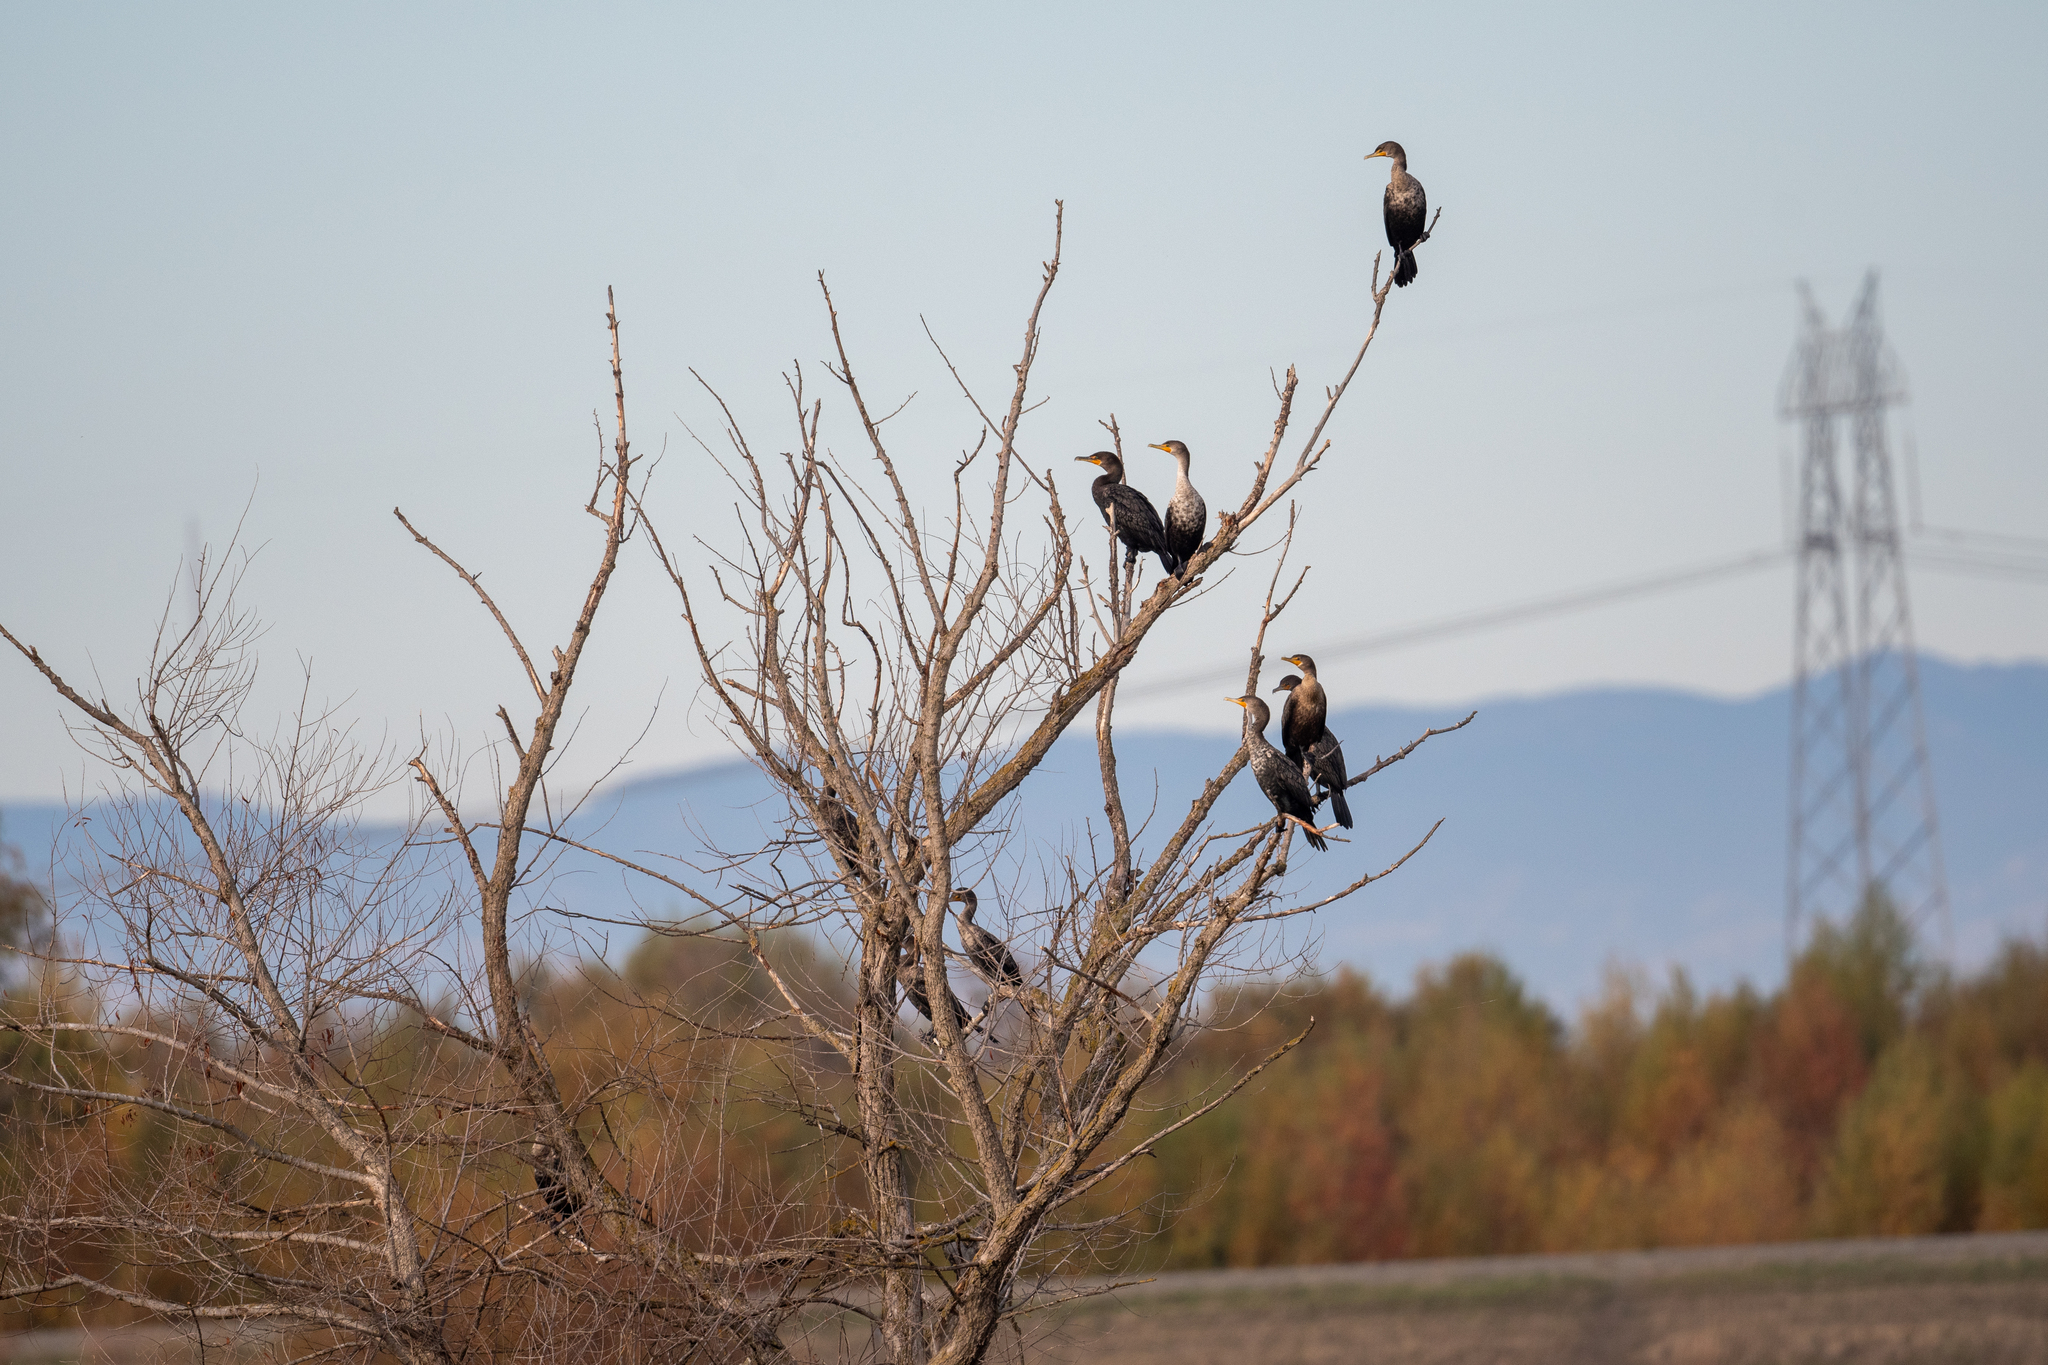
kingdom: Animalia
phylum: Chordata
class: Aves
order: Suliformes
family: Phalacrocoracidae
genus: Phalacrocorax
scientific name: Phalacrocorax auritus
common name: Double-crested cormorant
